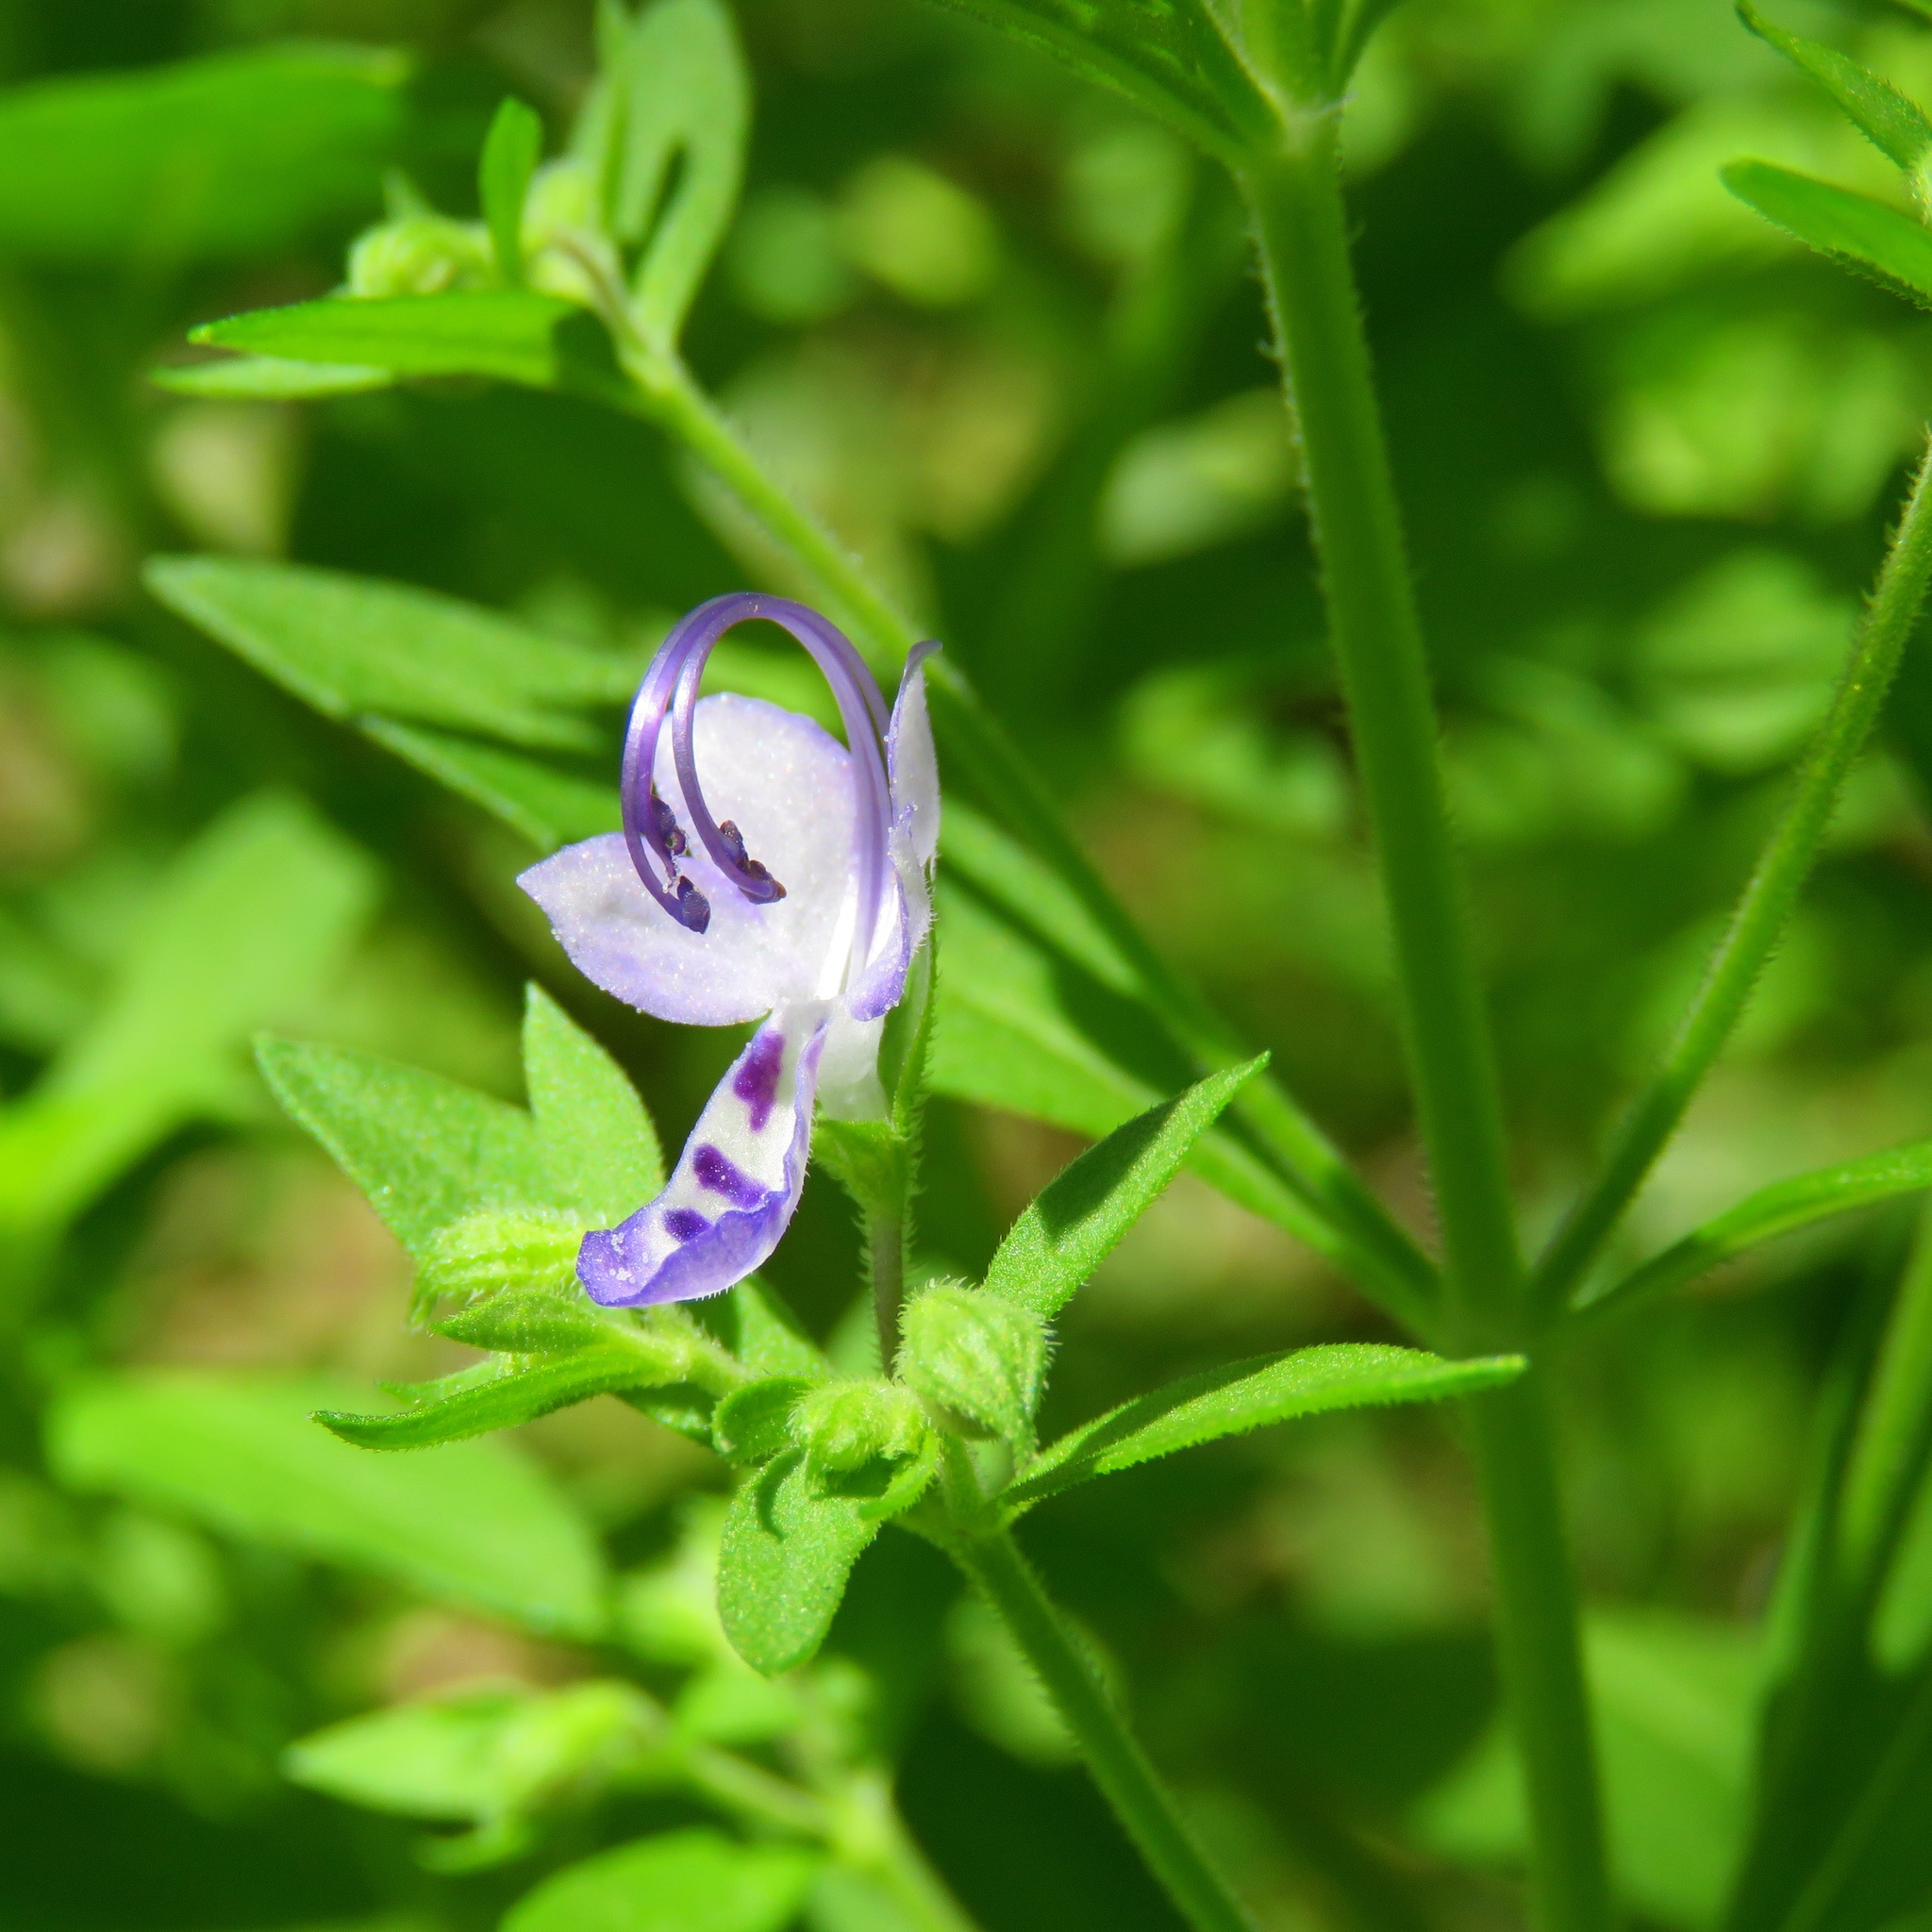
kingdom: Plantae
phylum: Tracheophyta
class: Magnoliopsida
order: Lamiales
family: Lamiaceae
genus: Trichostema
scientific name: Trichostema dichotomum
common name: Bastard pennyroyal
